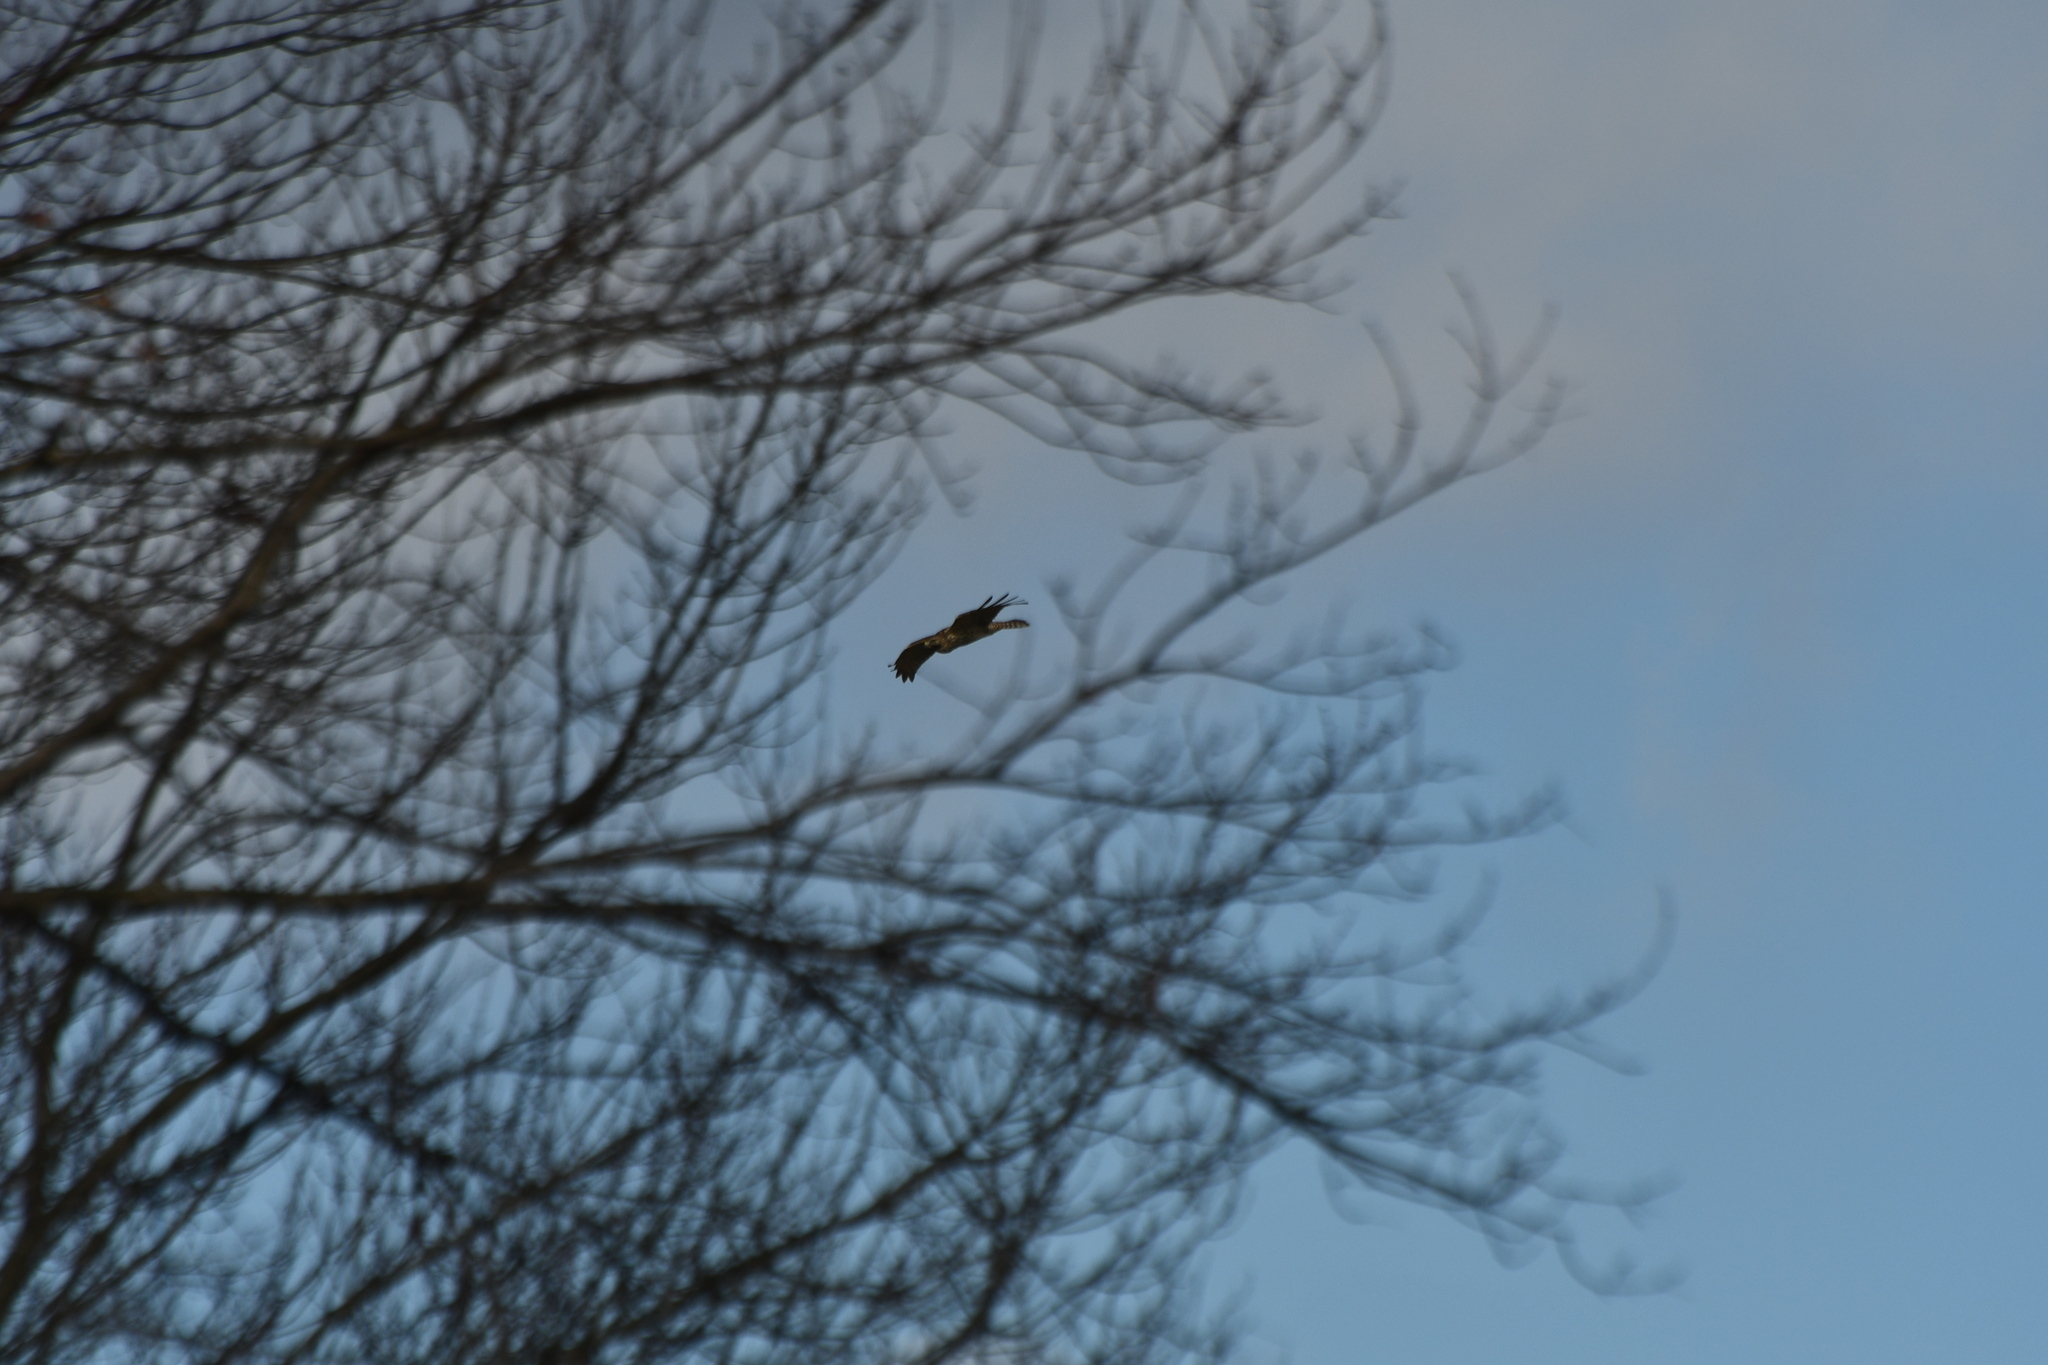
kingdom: Animalia
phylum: Chordata
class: Aves
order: Accipitriformes
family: Accipitridae
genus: Haliaeetus
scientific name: Haliaeetus leucocephalus
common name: Bald eagle
